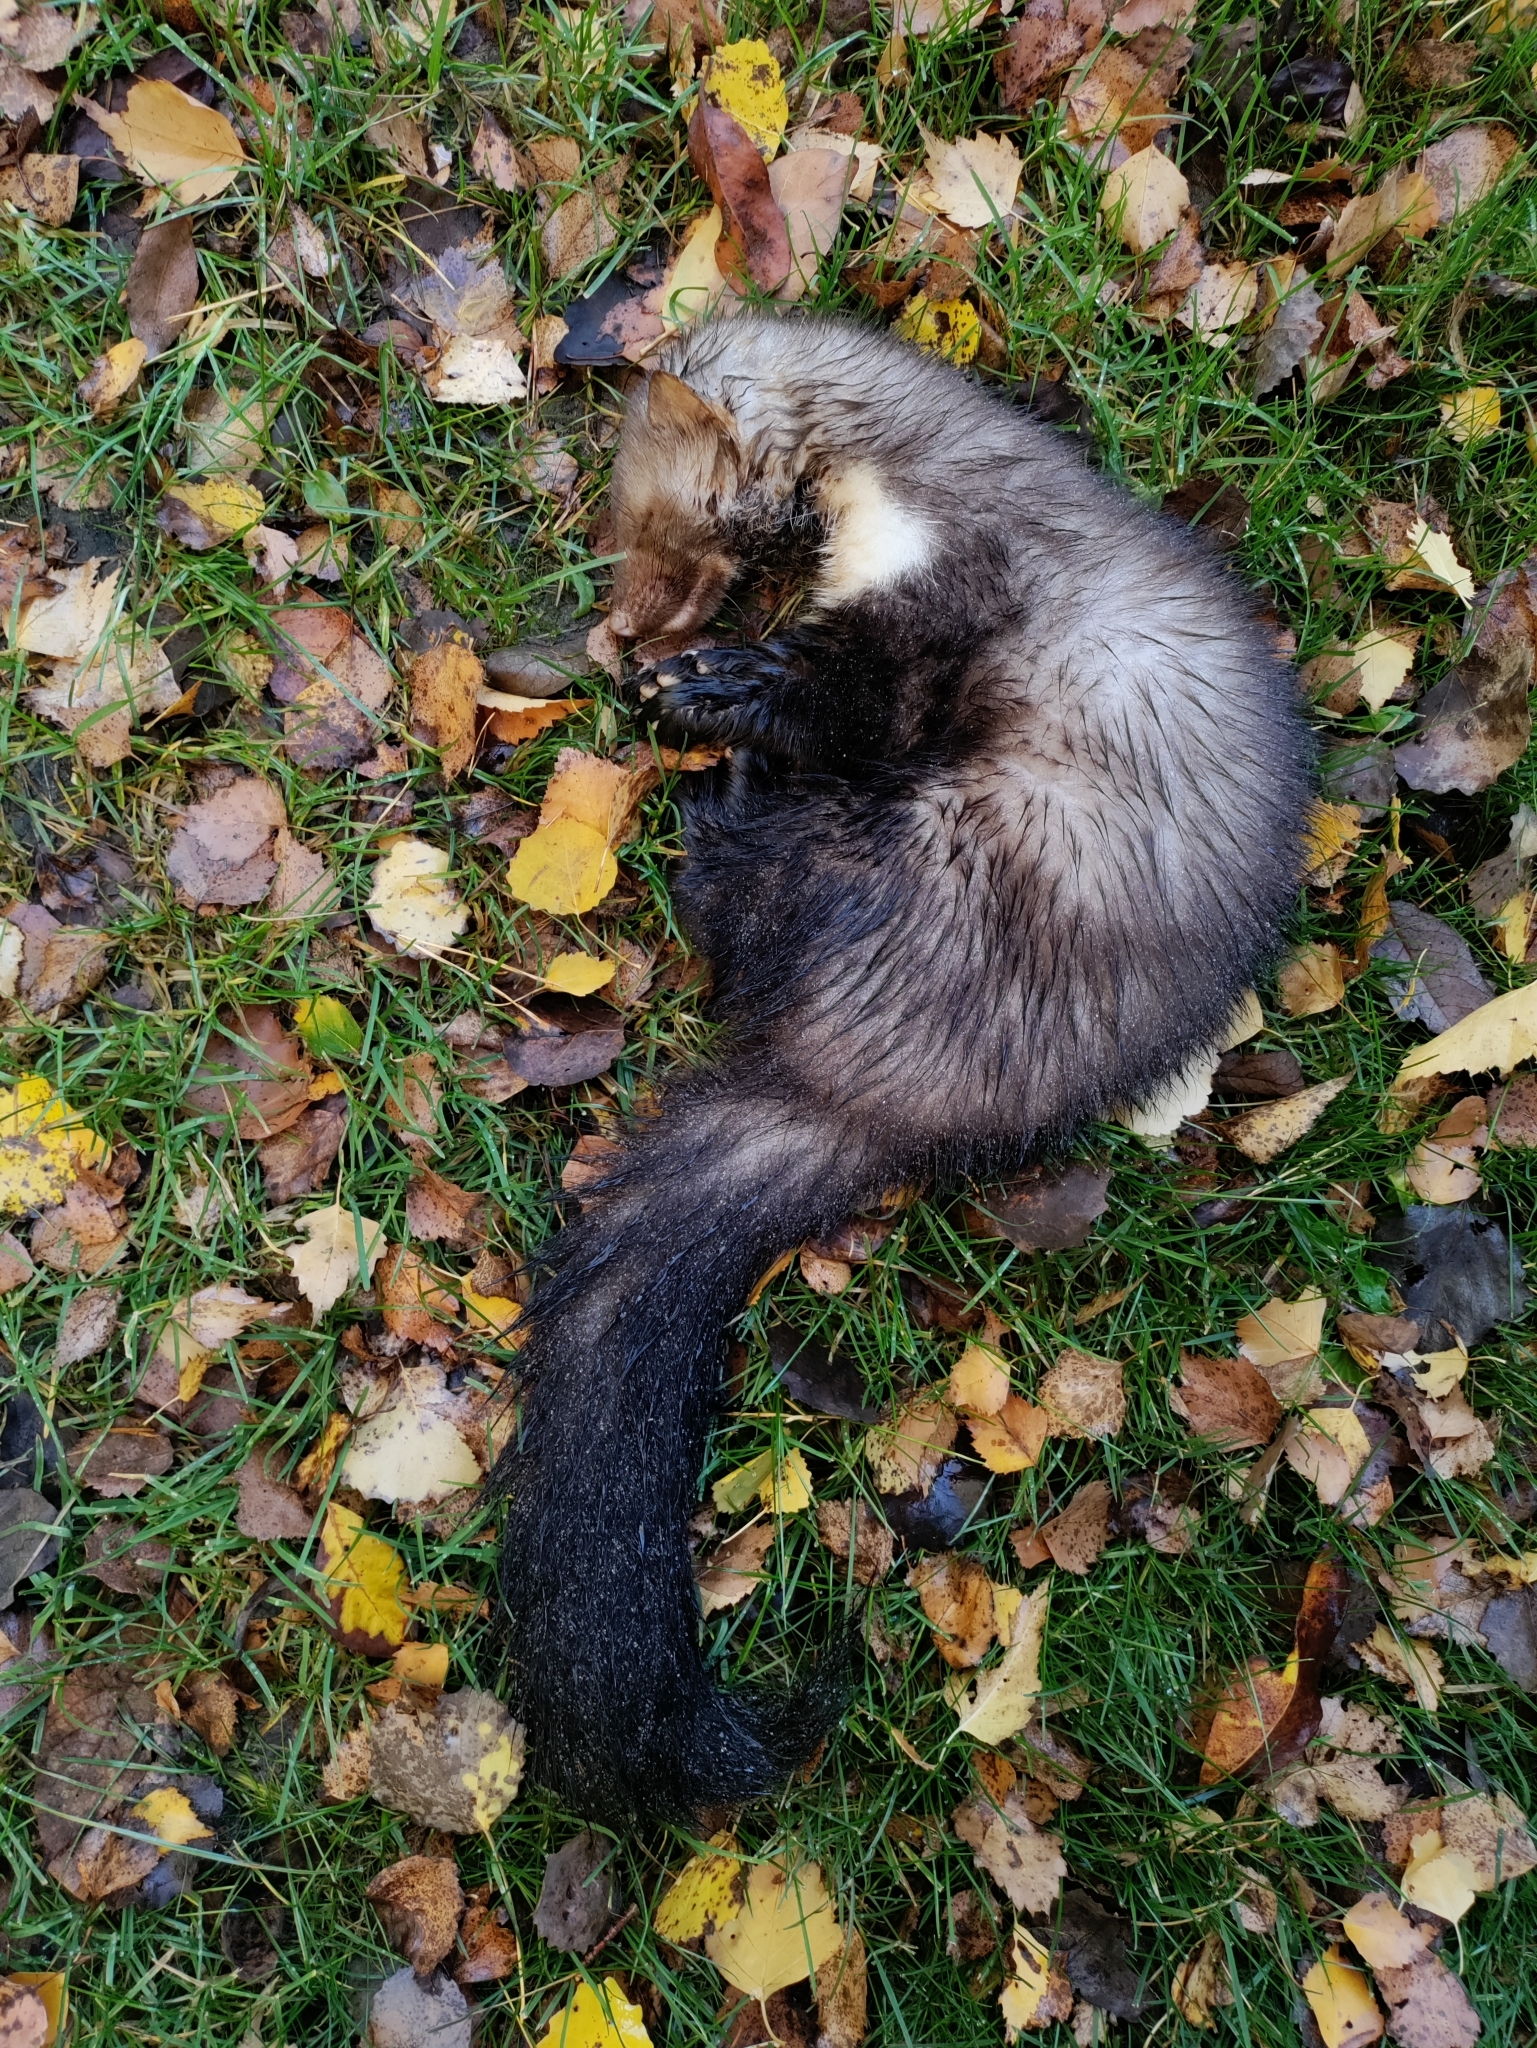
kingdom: Animalia
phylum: Chordata
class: Mammalia
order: Carnivora
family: Mustelidae
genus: Martes
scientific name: Martes foina
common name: Beech marten
